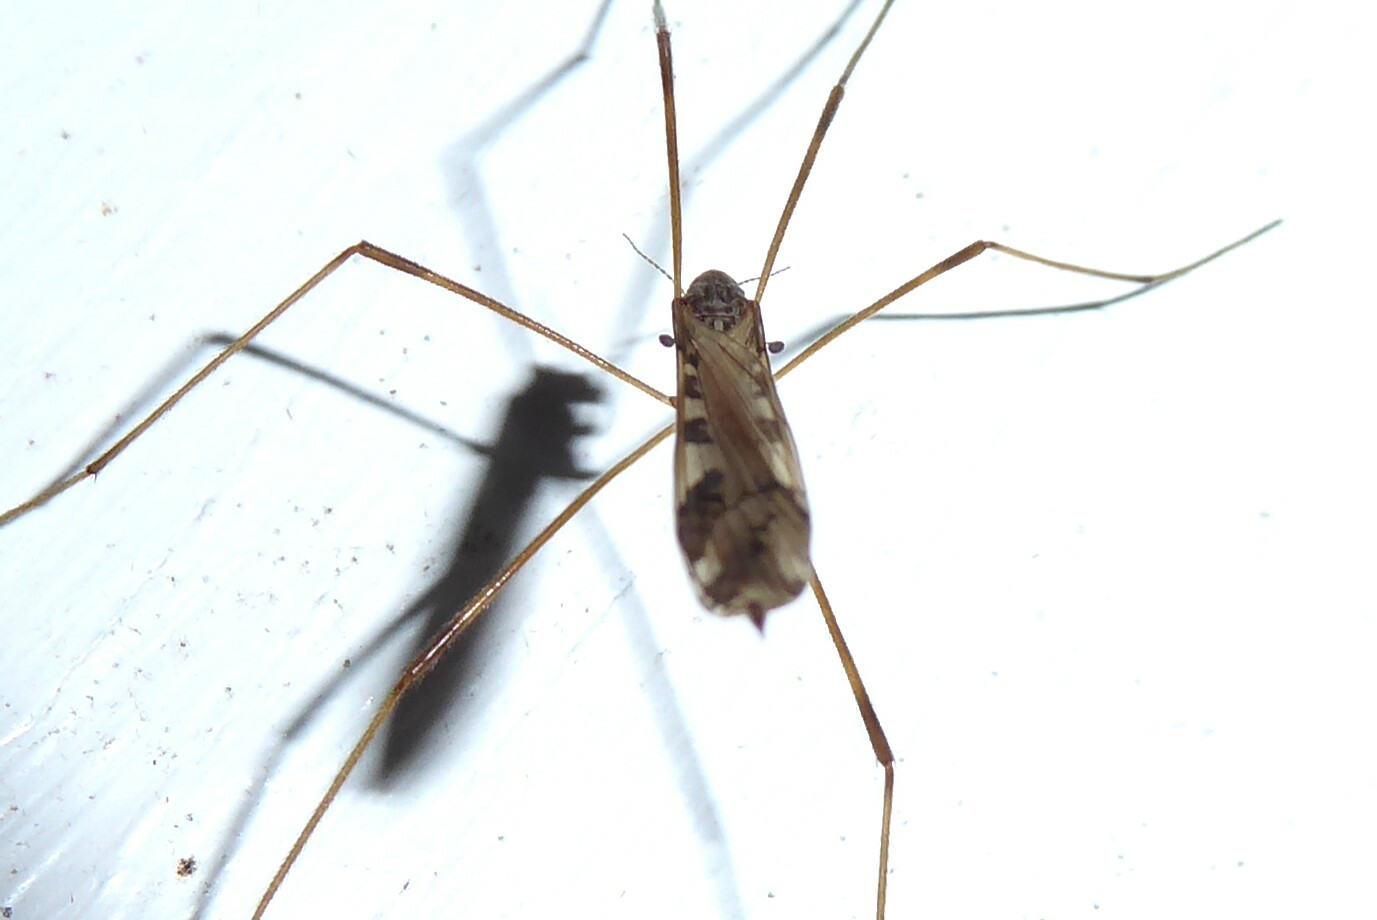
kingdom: Animalia
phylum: Arthropoda
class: Insecta
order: Diptera
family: Limoniidae
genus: Paralimnophila
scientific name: Paralimnophila skusei
